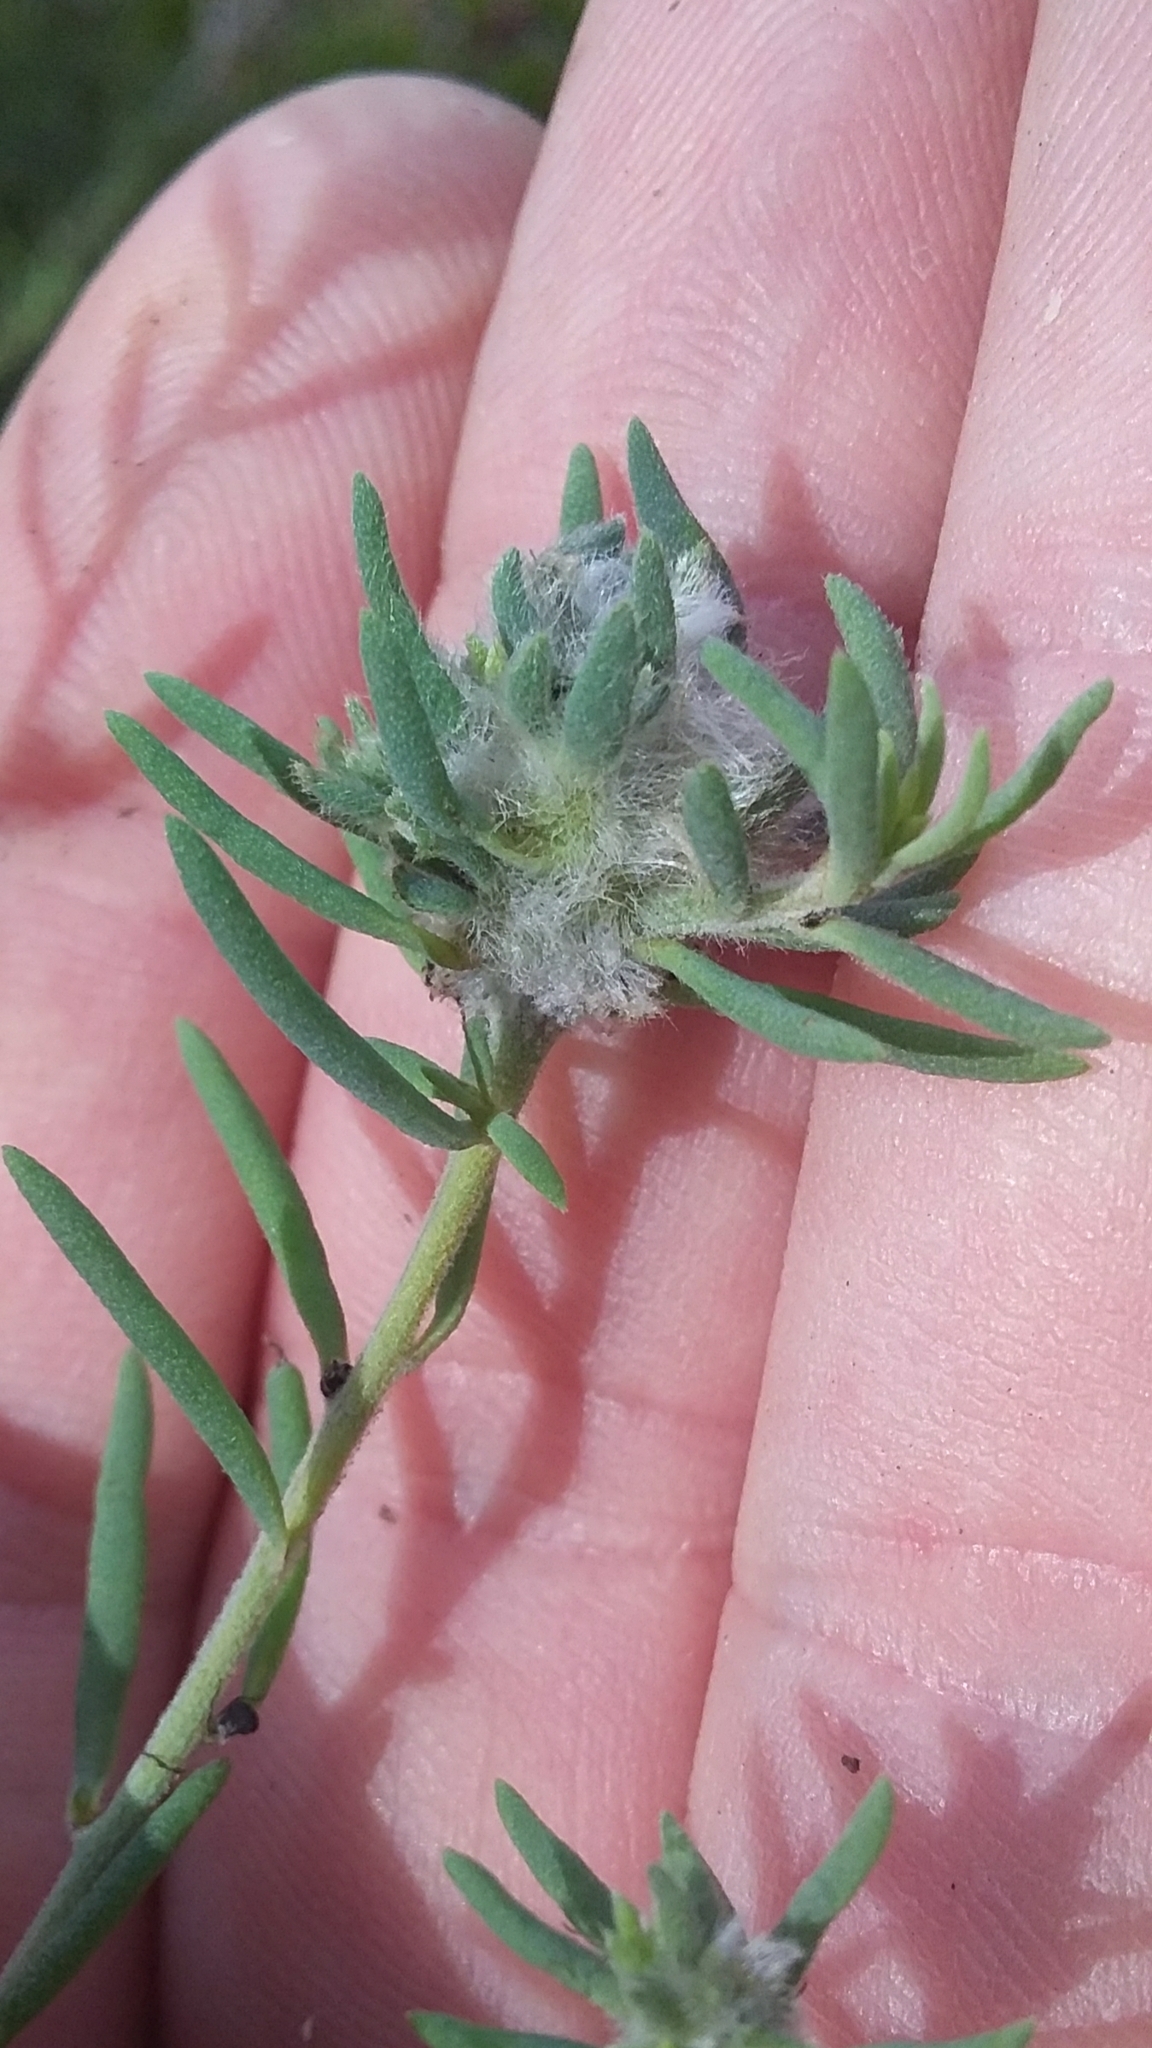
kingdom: Animalia
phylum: Arthropoda
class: Insecta
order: Diptera
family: Cecidomyiidae
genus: Asphondylia
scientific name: Asphondylia tonsura
